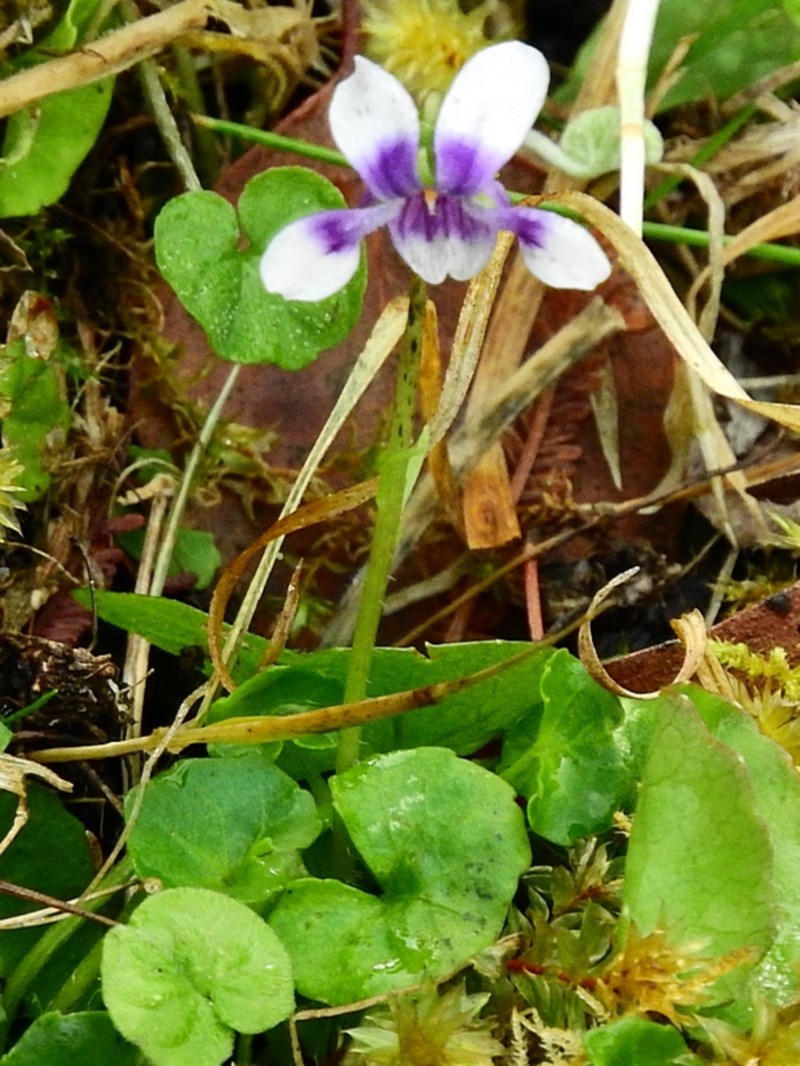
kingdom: Plantae
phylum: Tracheophyta
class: Magnoliopsida
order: Malpighiales
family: Violaceae
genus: Viola
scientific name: Viola banksii
